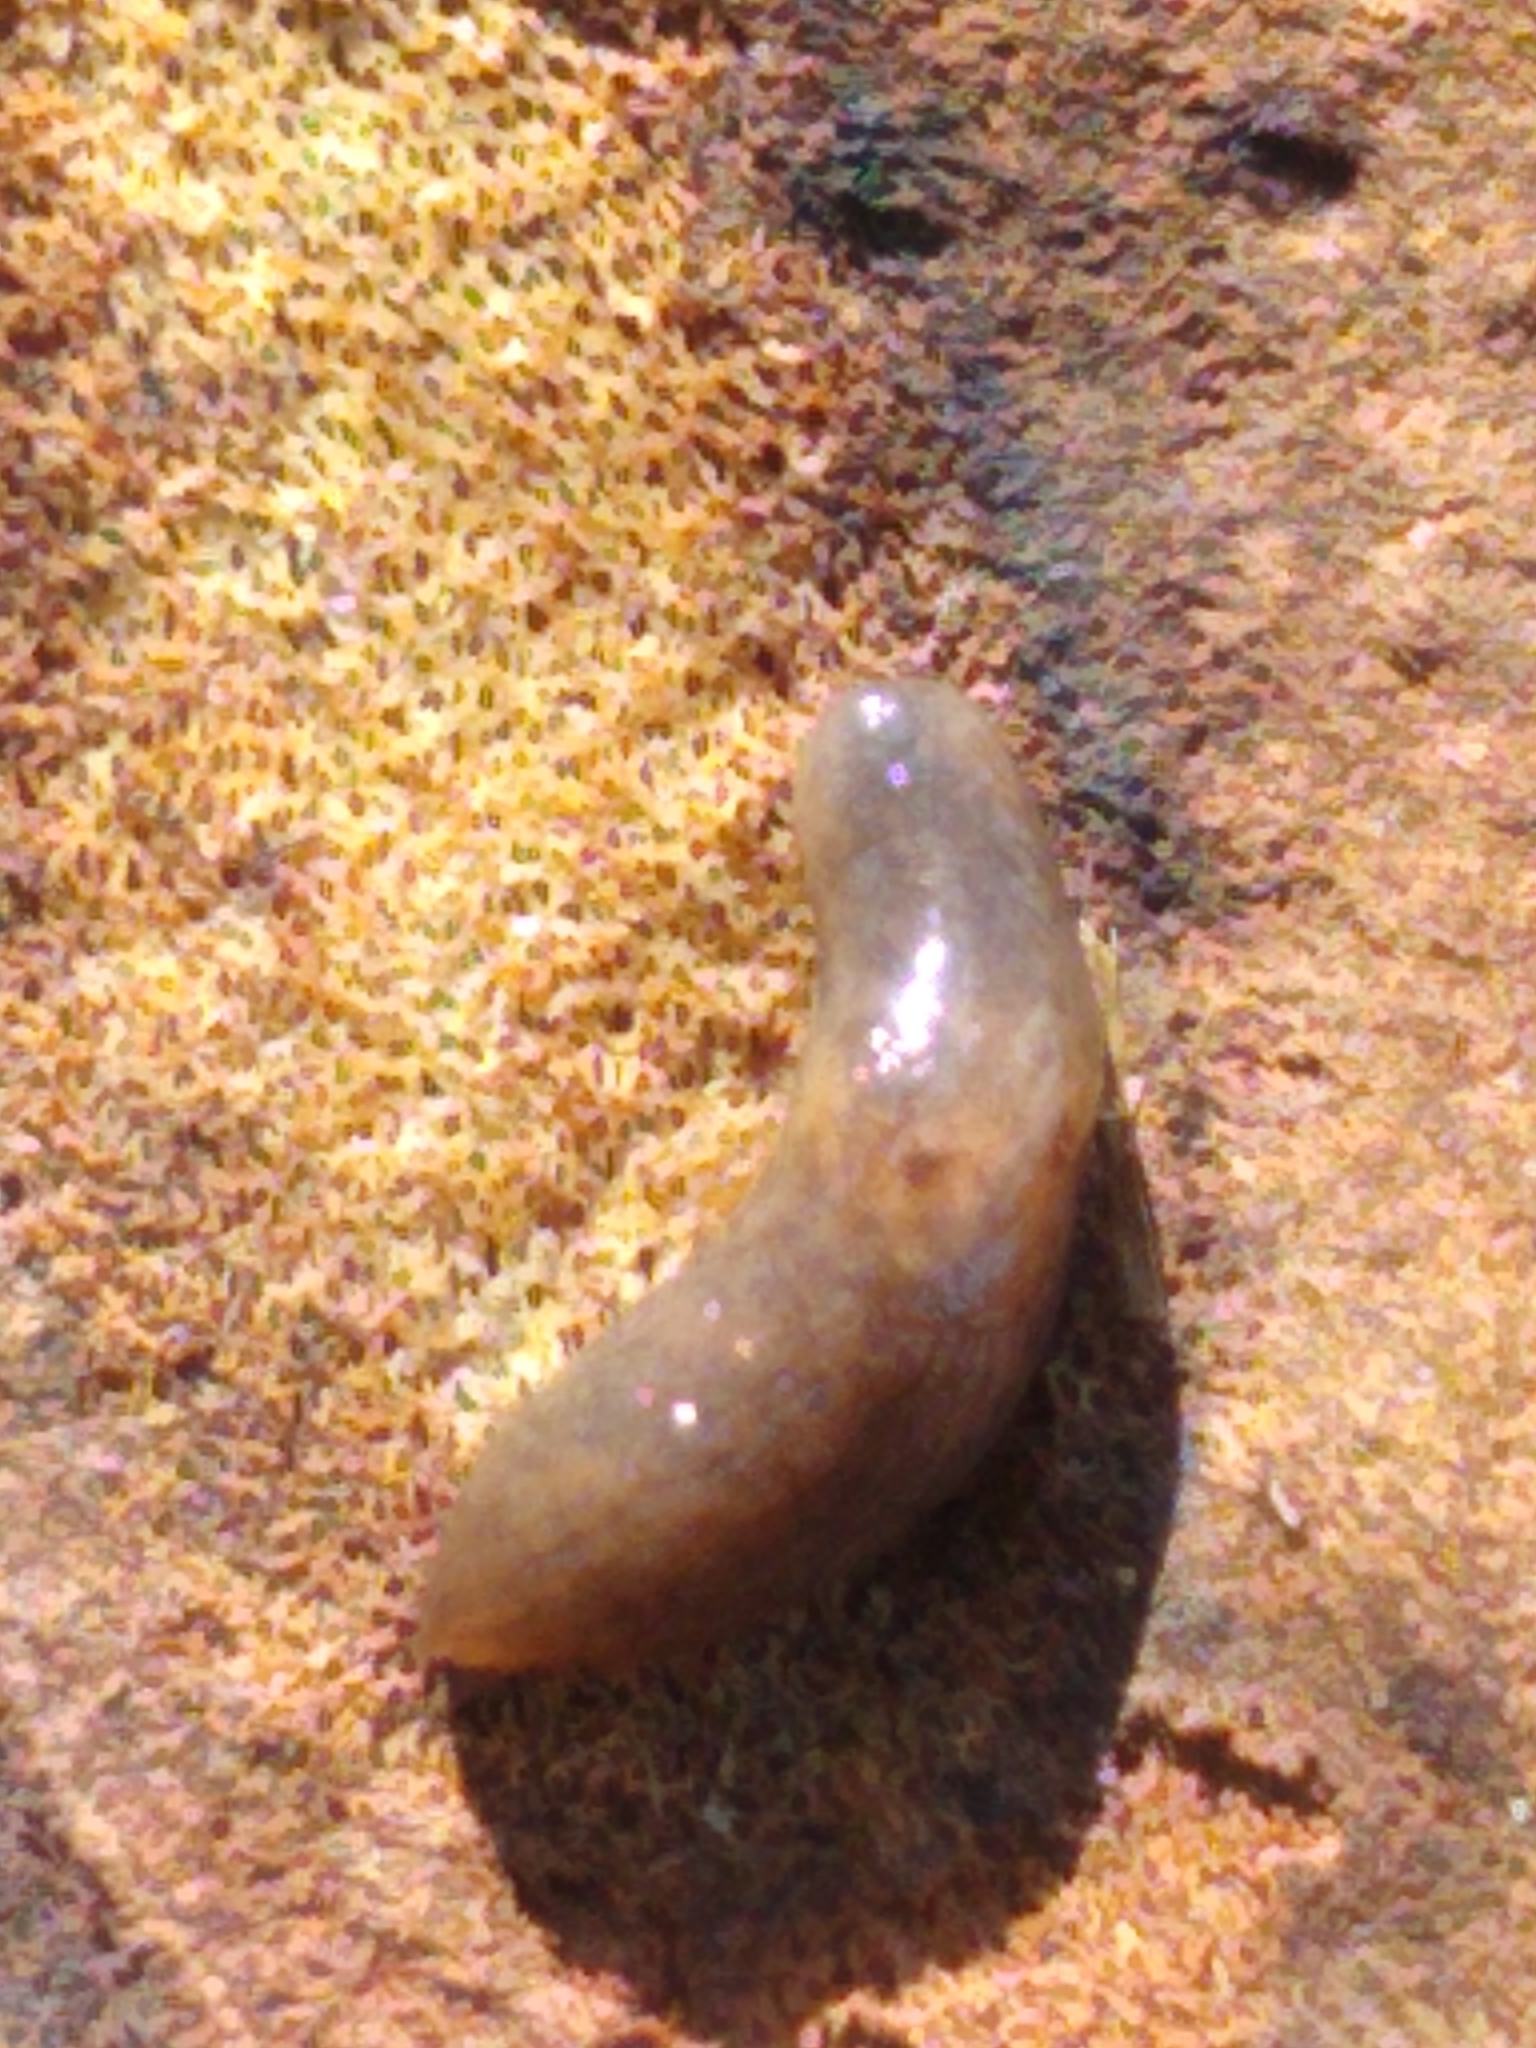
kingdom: Animalia
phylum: Mollusca
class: Gastropoda
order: Stylommatophora
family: Agriolimacidae
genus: Deroceras
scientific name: Deroceras reticulatum
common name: Gray field slug
